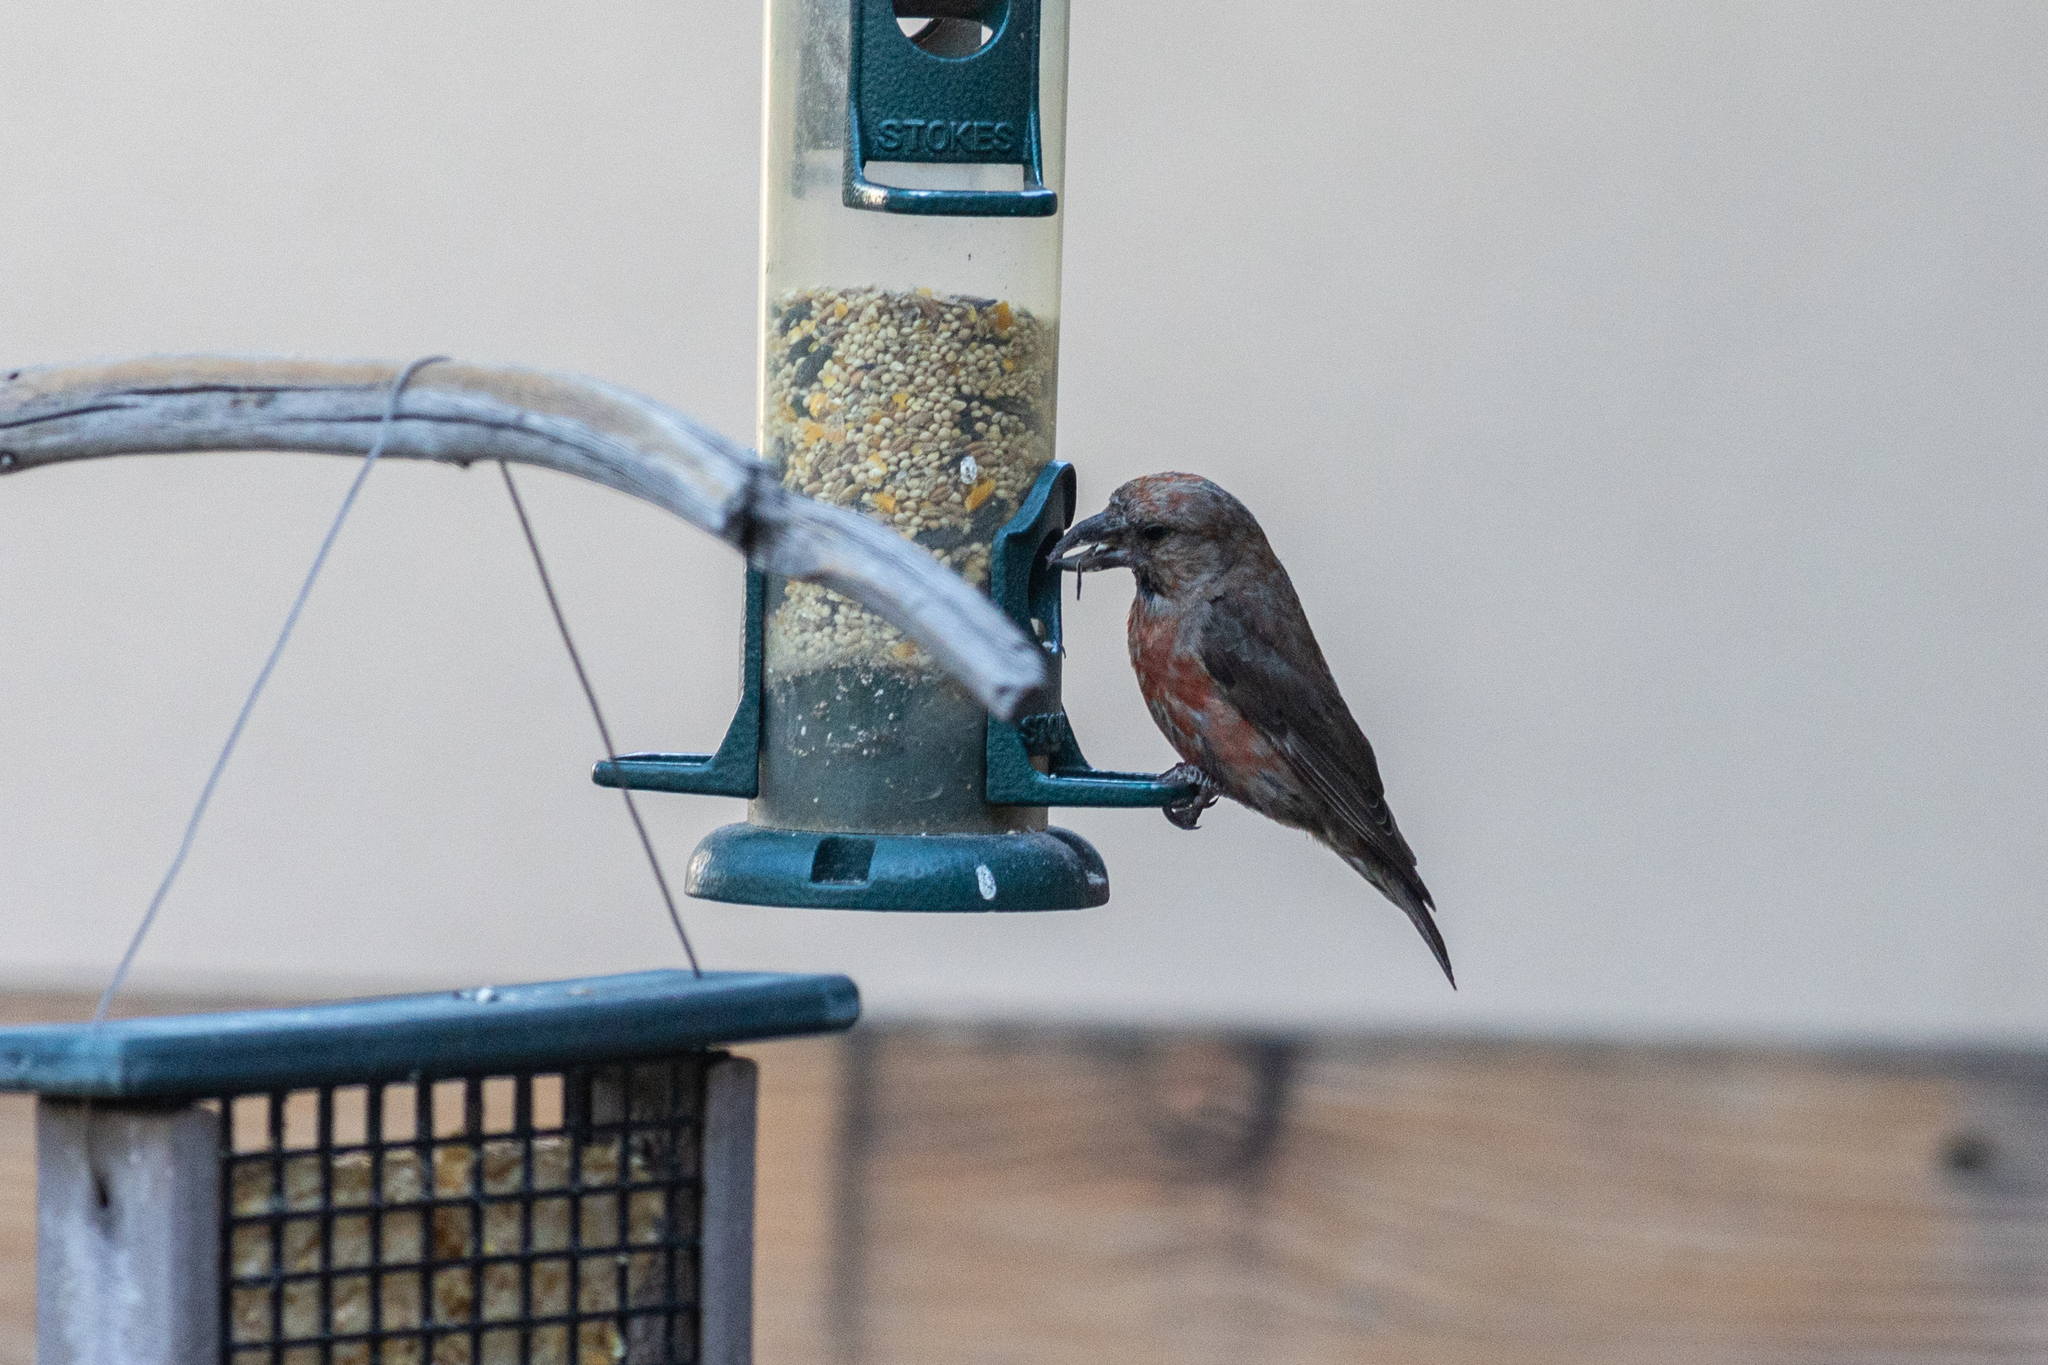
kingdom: Animalia
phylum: Chordata
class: Aves
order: Passeriformes
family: Fringillidae
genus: Loxia
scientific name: Loxia curvirostra
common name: Red crossbill
